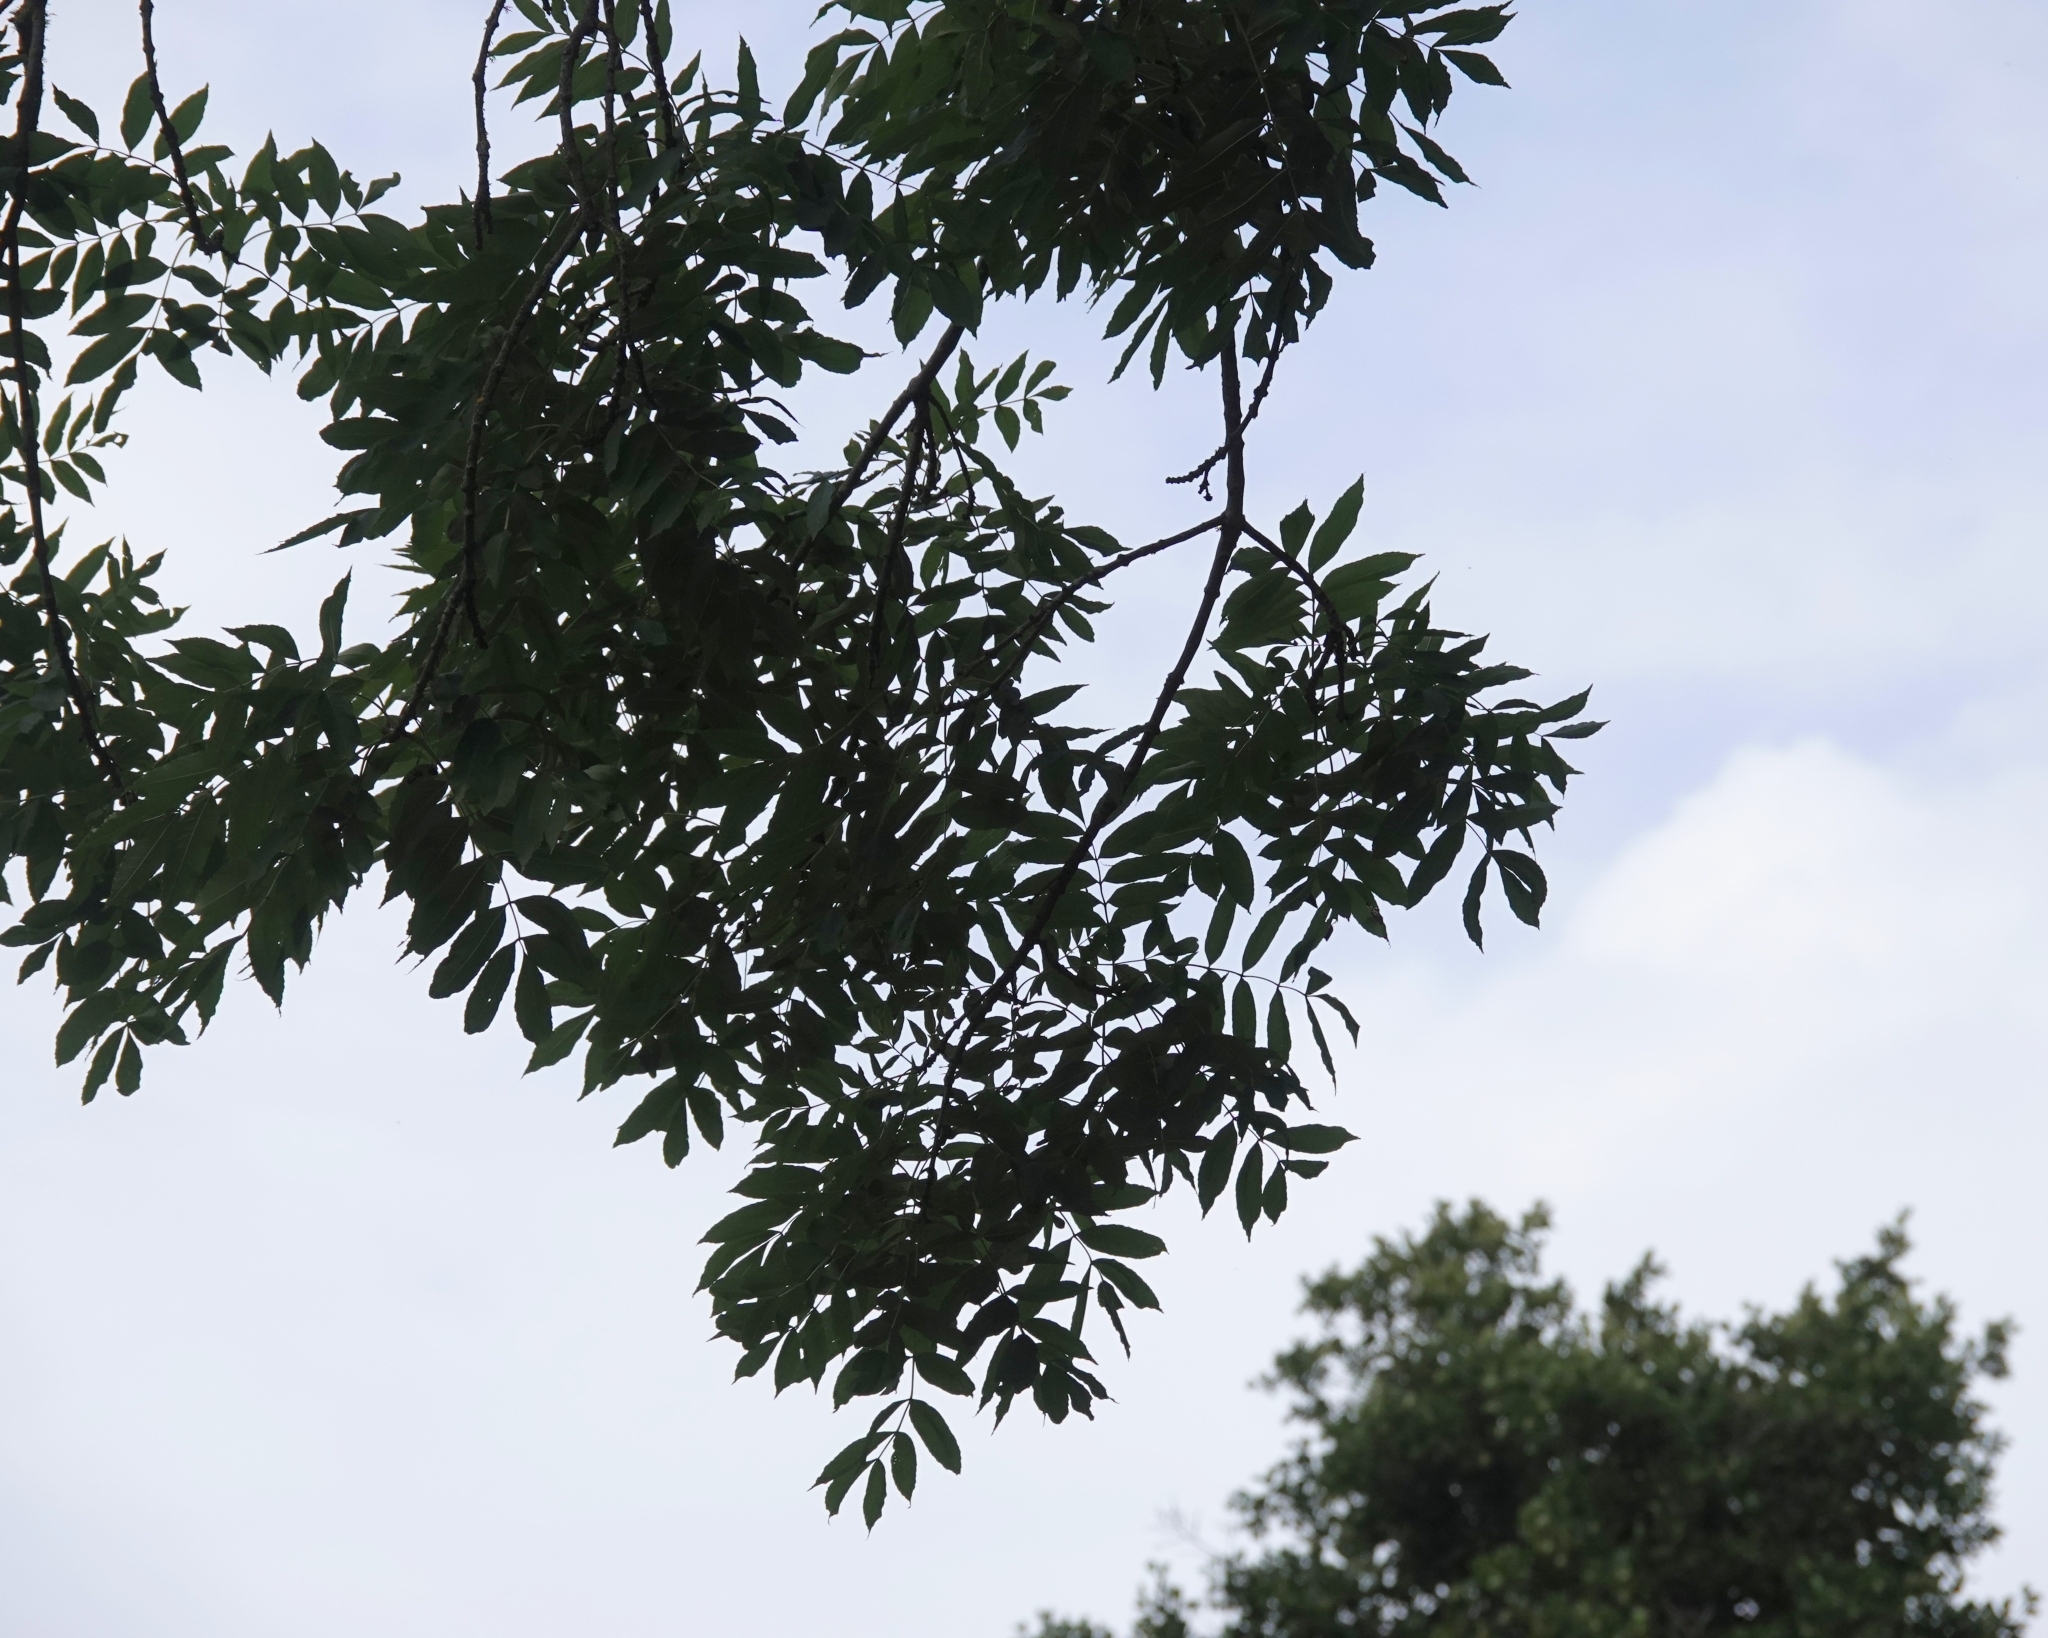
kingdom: Plantae
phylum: Tracheophyta
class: Magnoliopsida
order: Lamiales
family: Oleaceae
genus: Fraxinus
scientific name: Fraxinus excelsior
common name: European ash
